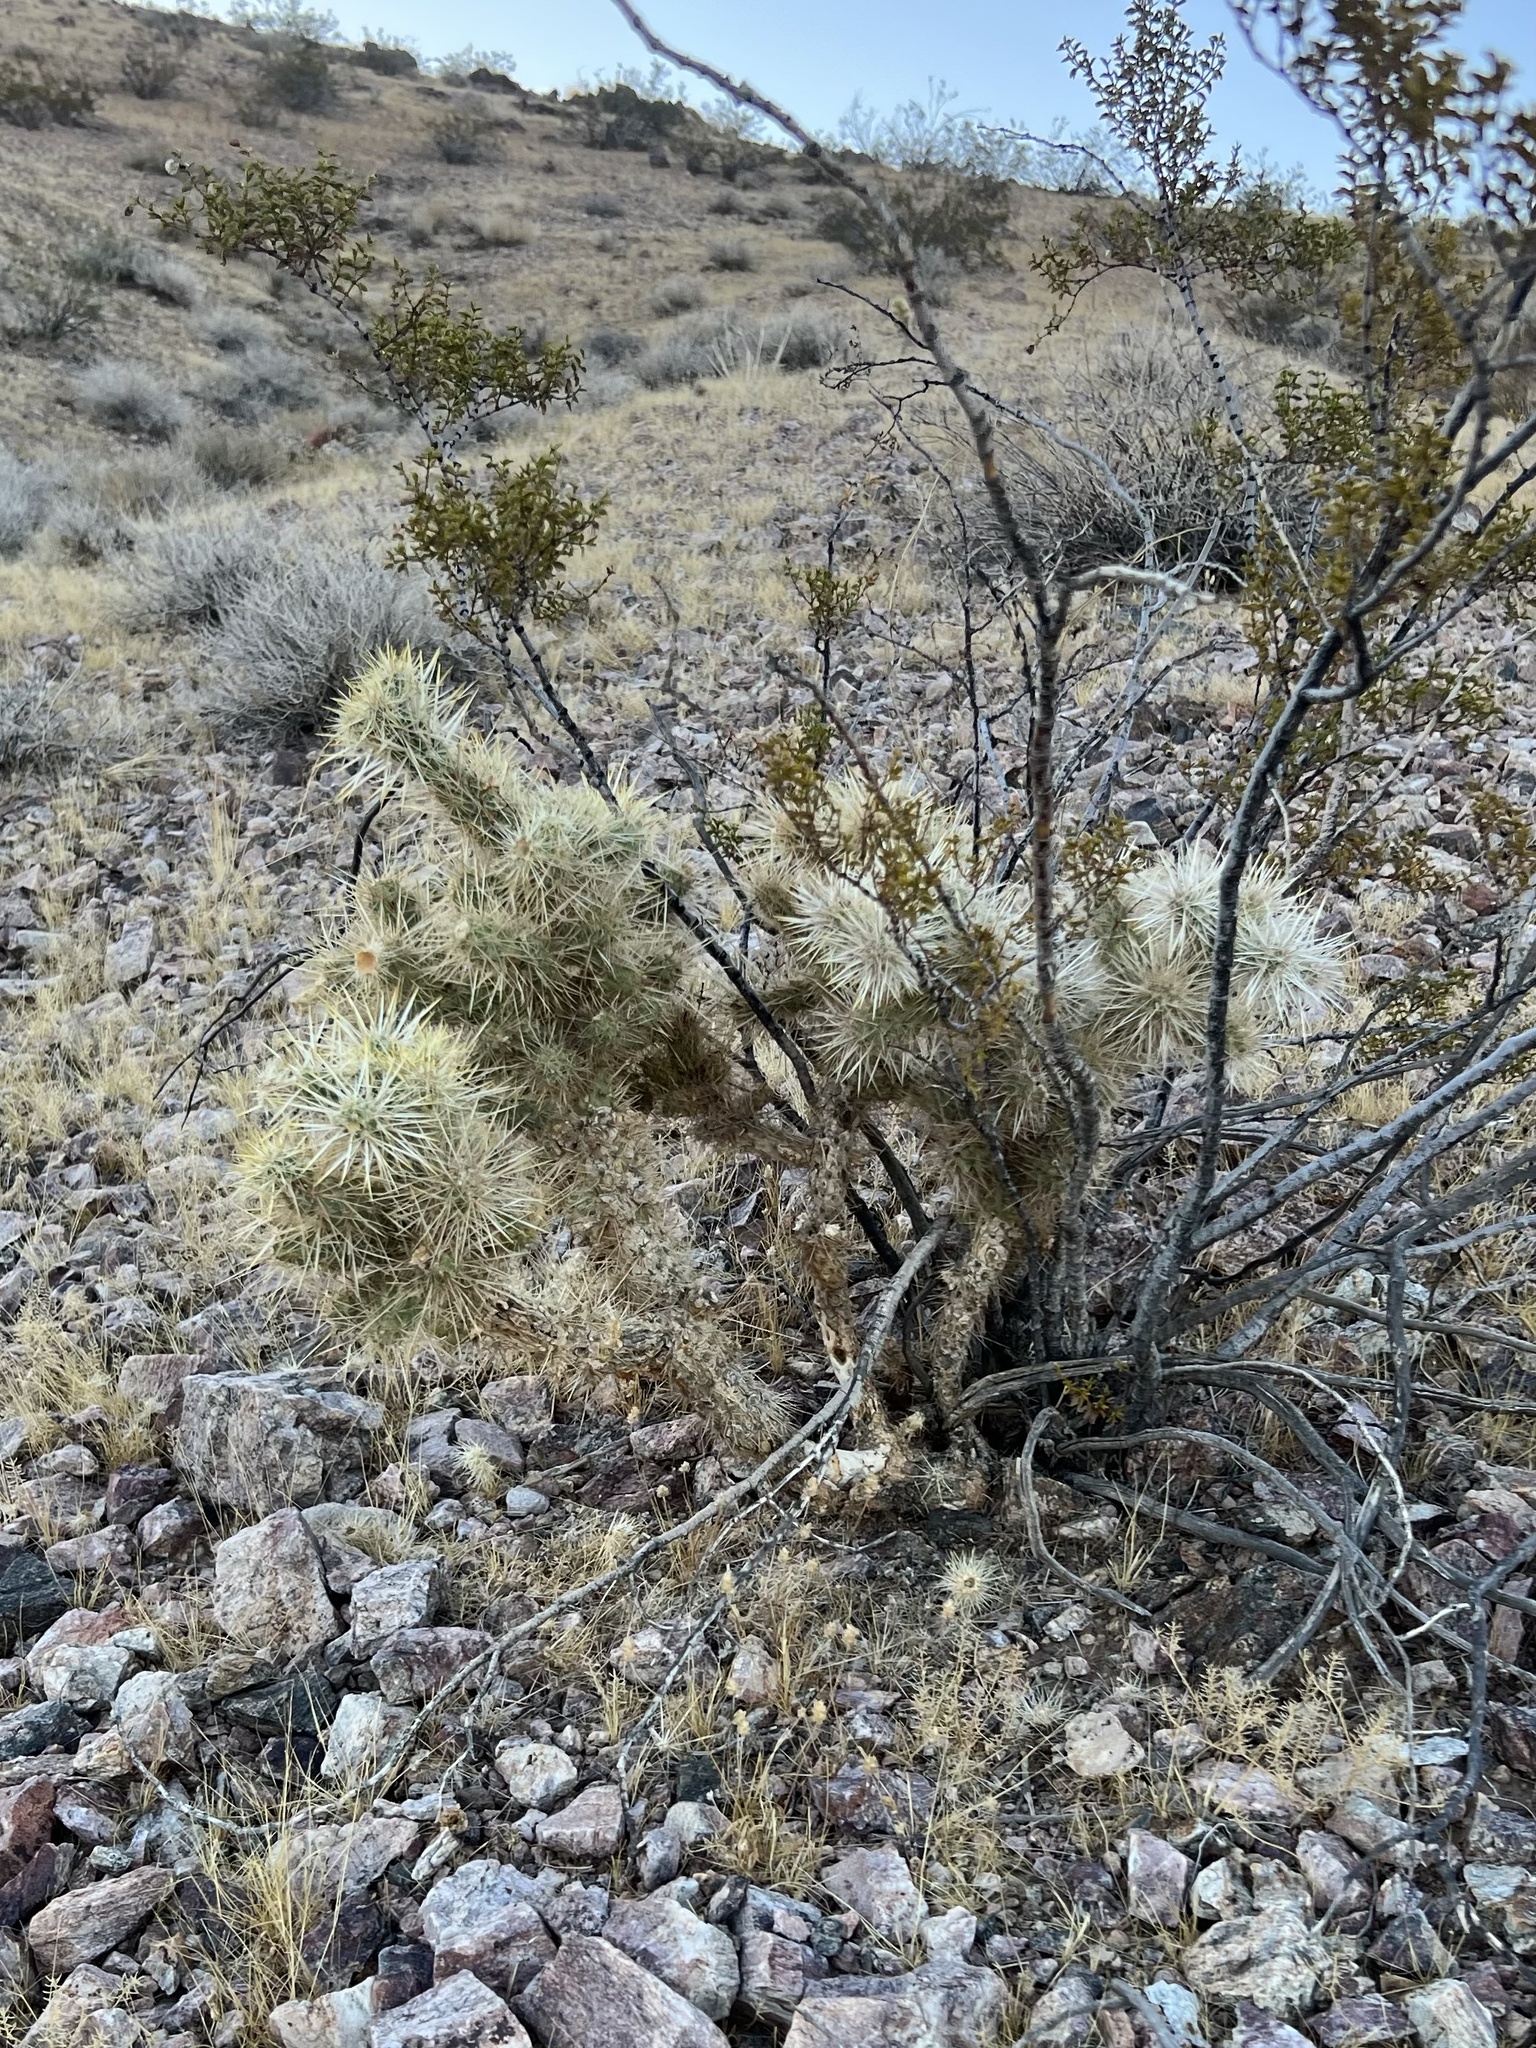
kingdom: Plantae
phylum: Tracheophyta
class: Magnoliopsida
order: Caryophyllales
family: Cactaceae
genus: Cylindropuntia
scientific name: Cylindropuntia echinocarpa
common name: Ground cholla
